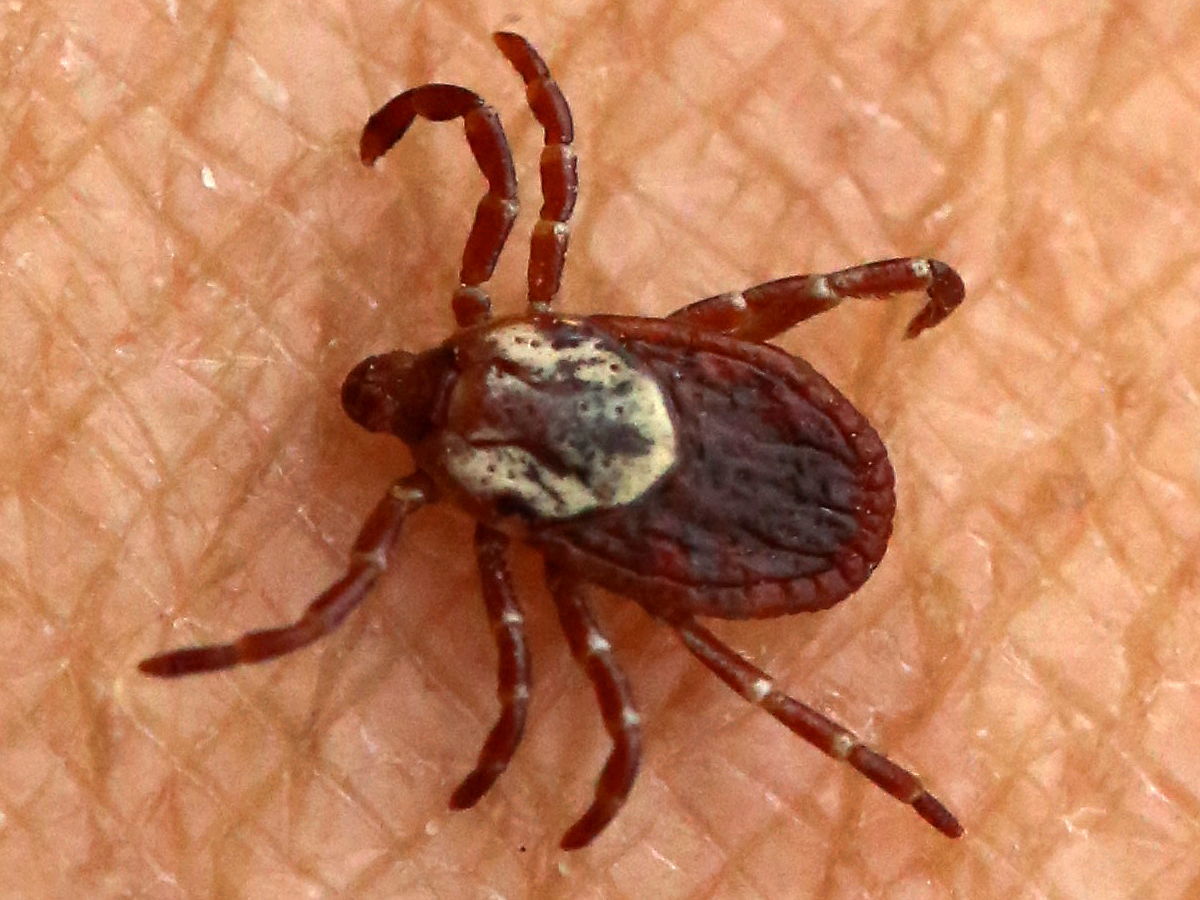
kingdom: Animalia
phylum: Arthropoda
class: Arachnida
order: Ixodida
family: Ixodidae
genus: Dermacentor
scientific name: Dermacentor variabilis
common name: American dog tick
